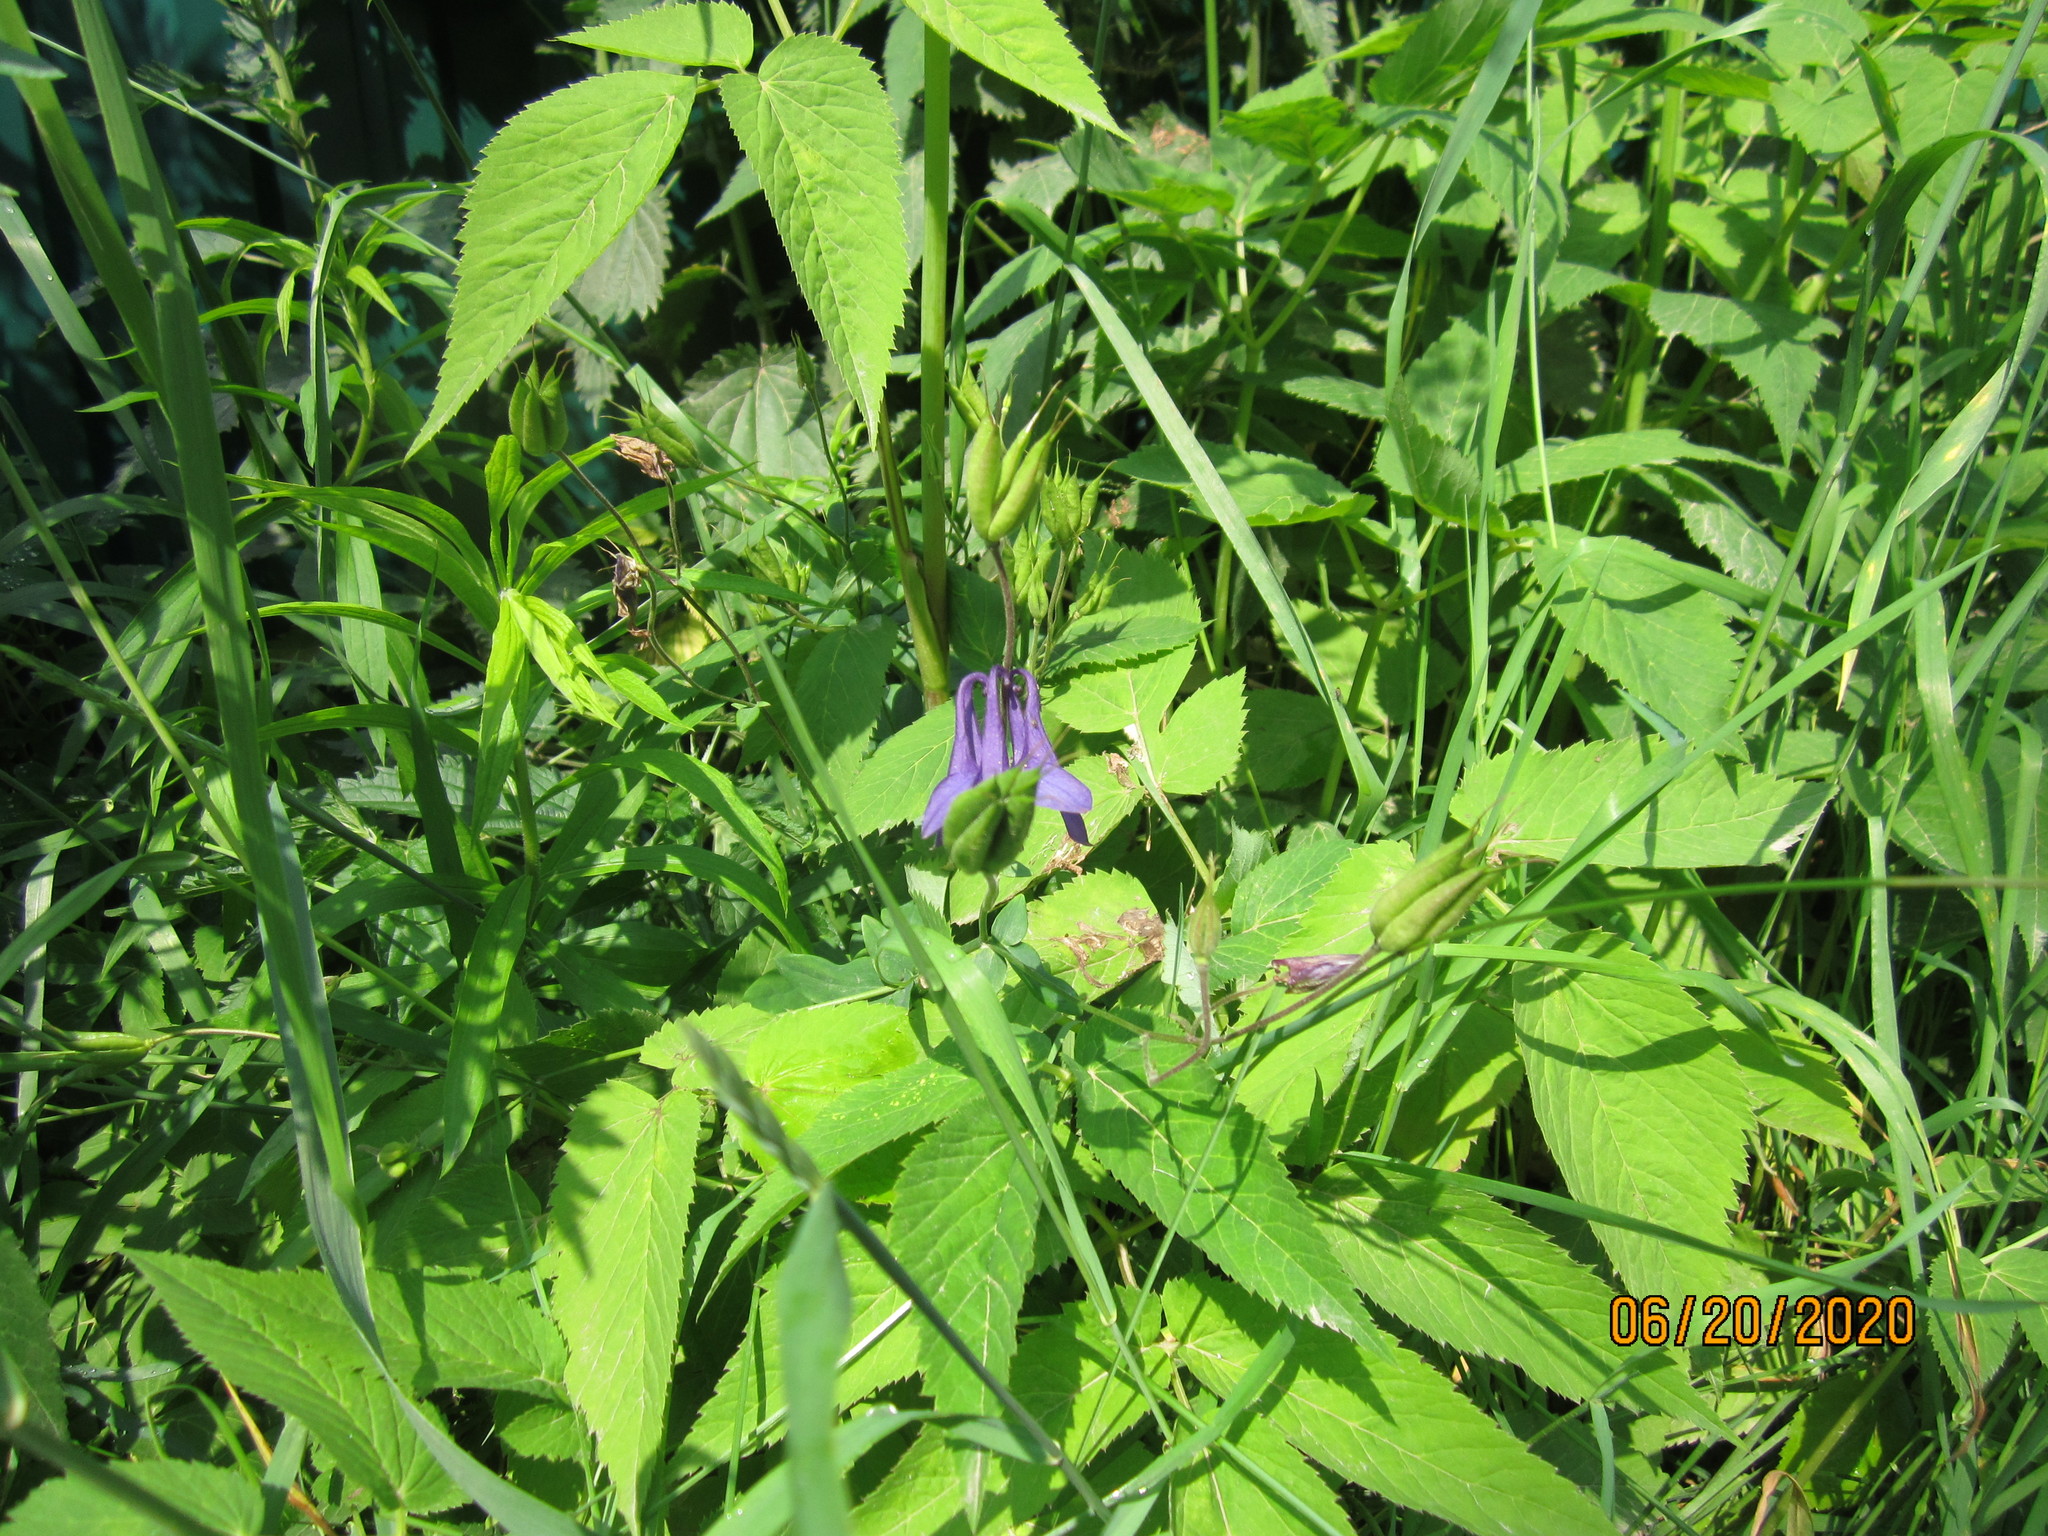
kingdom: Plantae
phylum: Tracheophyta
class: Magnoliopsida
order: Ranunculales
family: Ranunculaceae
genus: Aquilegia
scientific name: Aquilegia vulgaris
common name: Columbine
